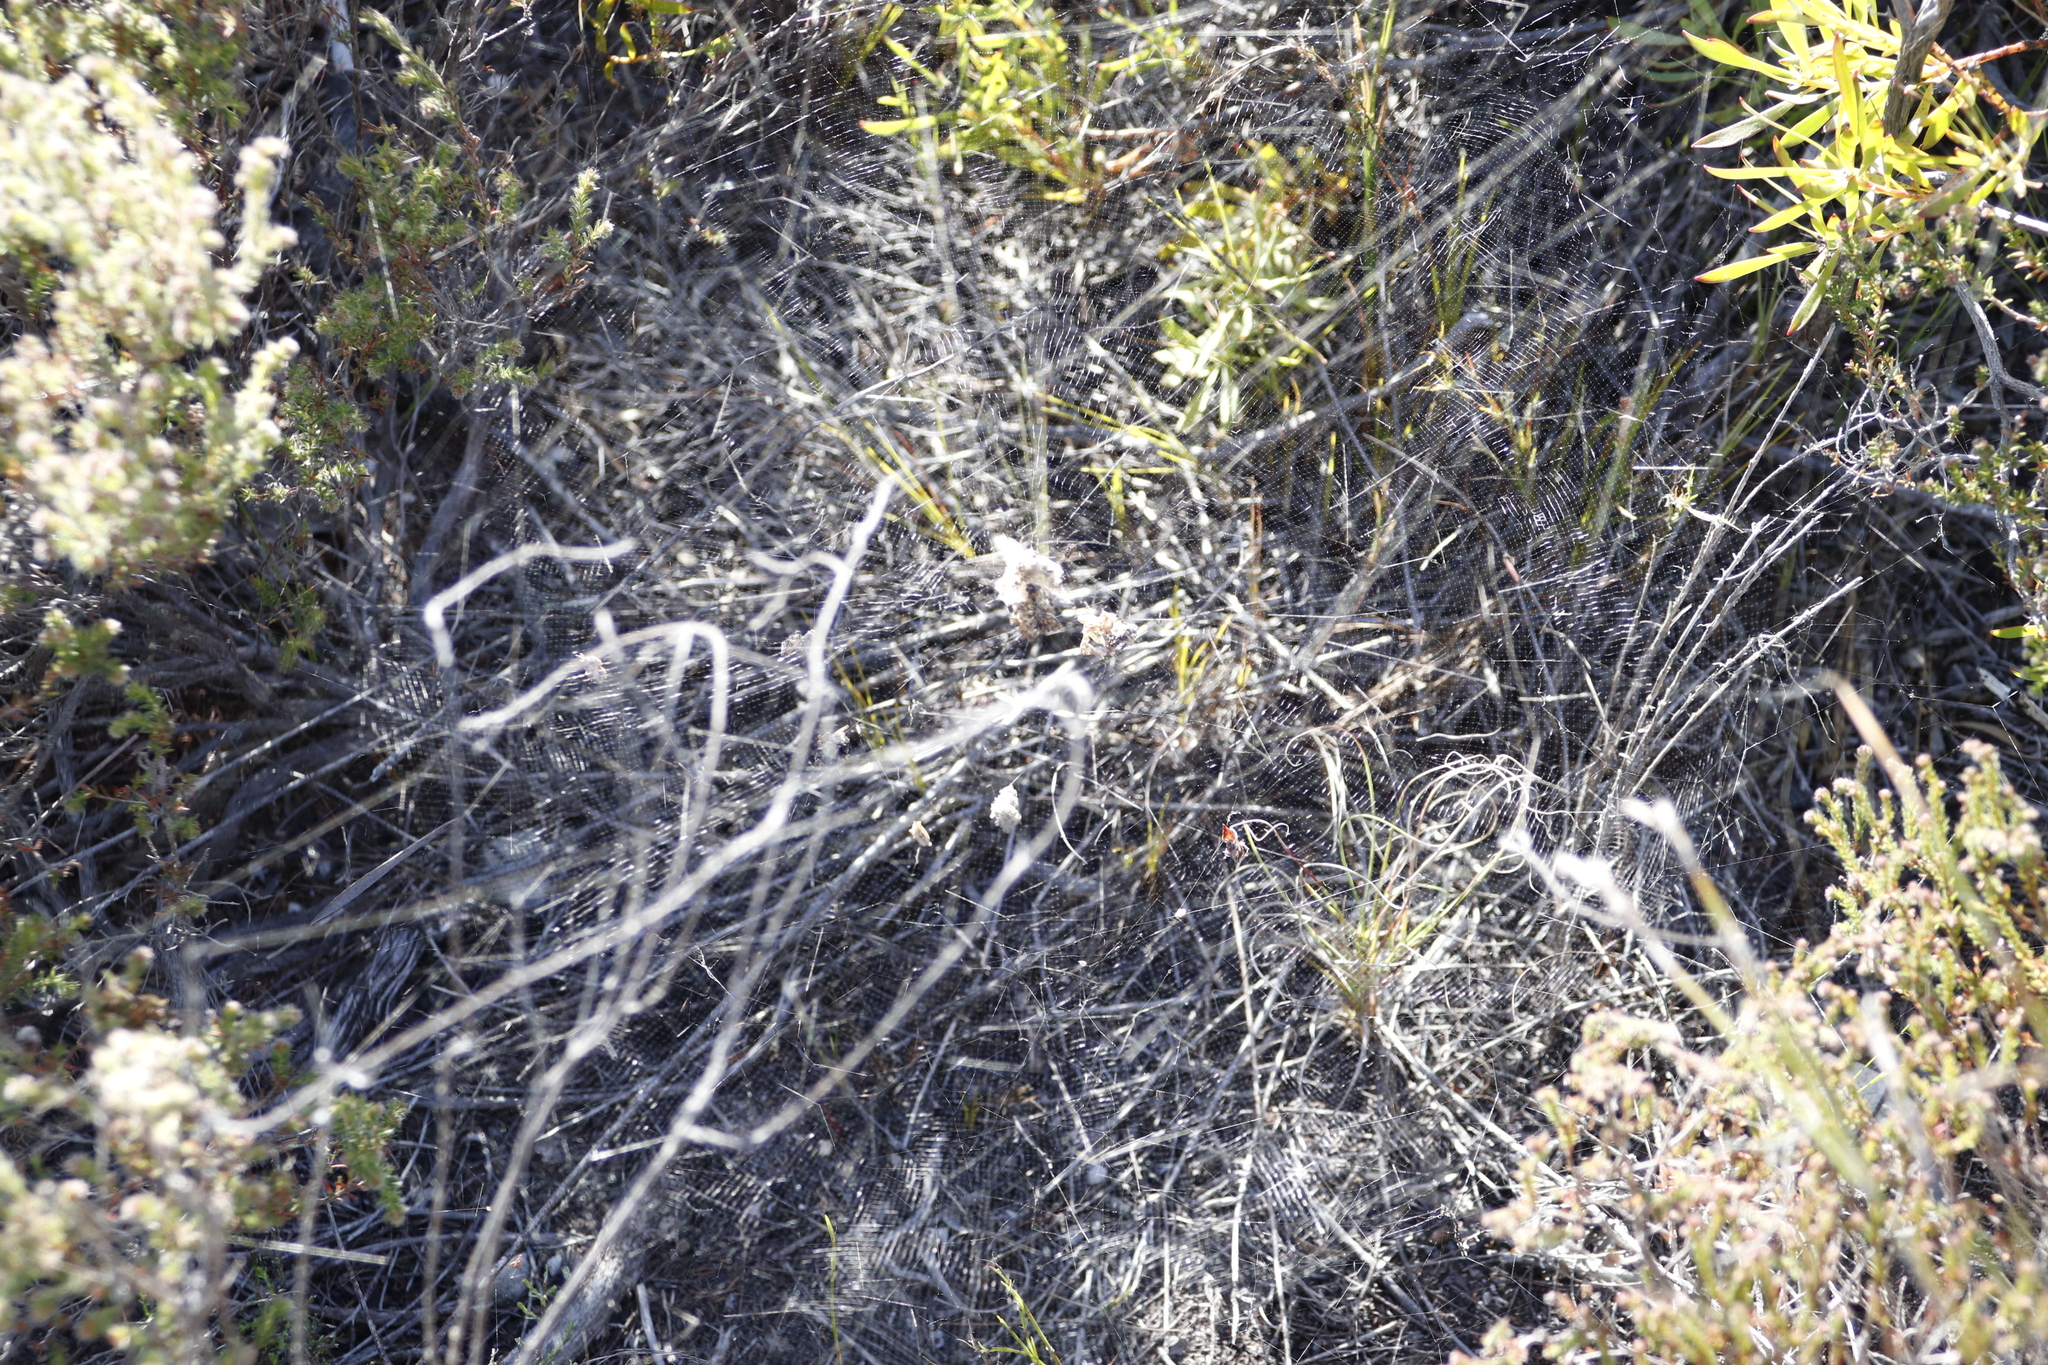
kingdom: Animalia
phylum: Arthropoda
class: Arachnida
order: Araneae
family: Araneidae
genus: Cyrtophora
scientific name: Cyrtophora citricola
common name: Orb weavers
